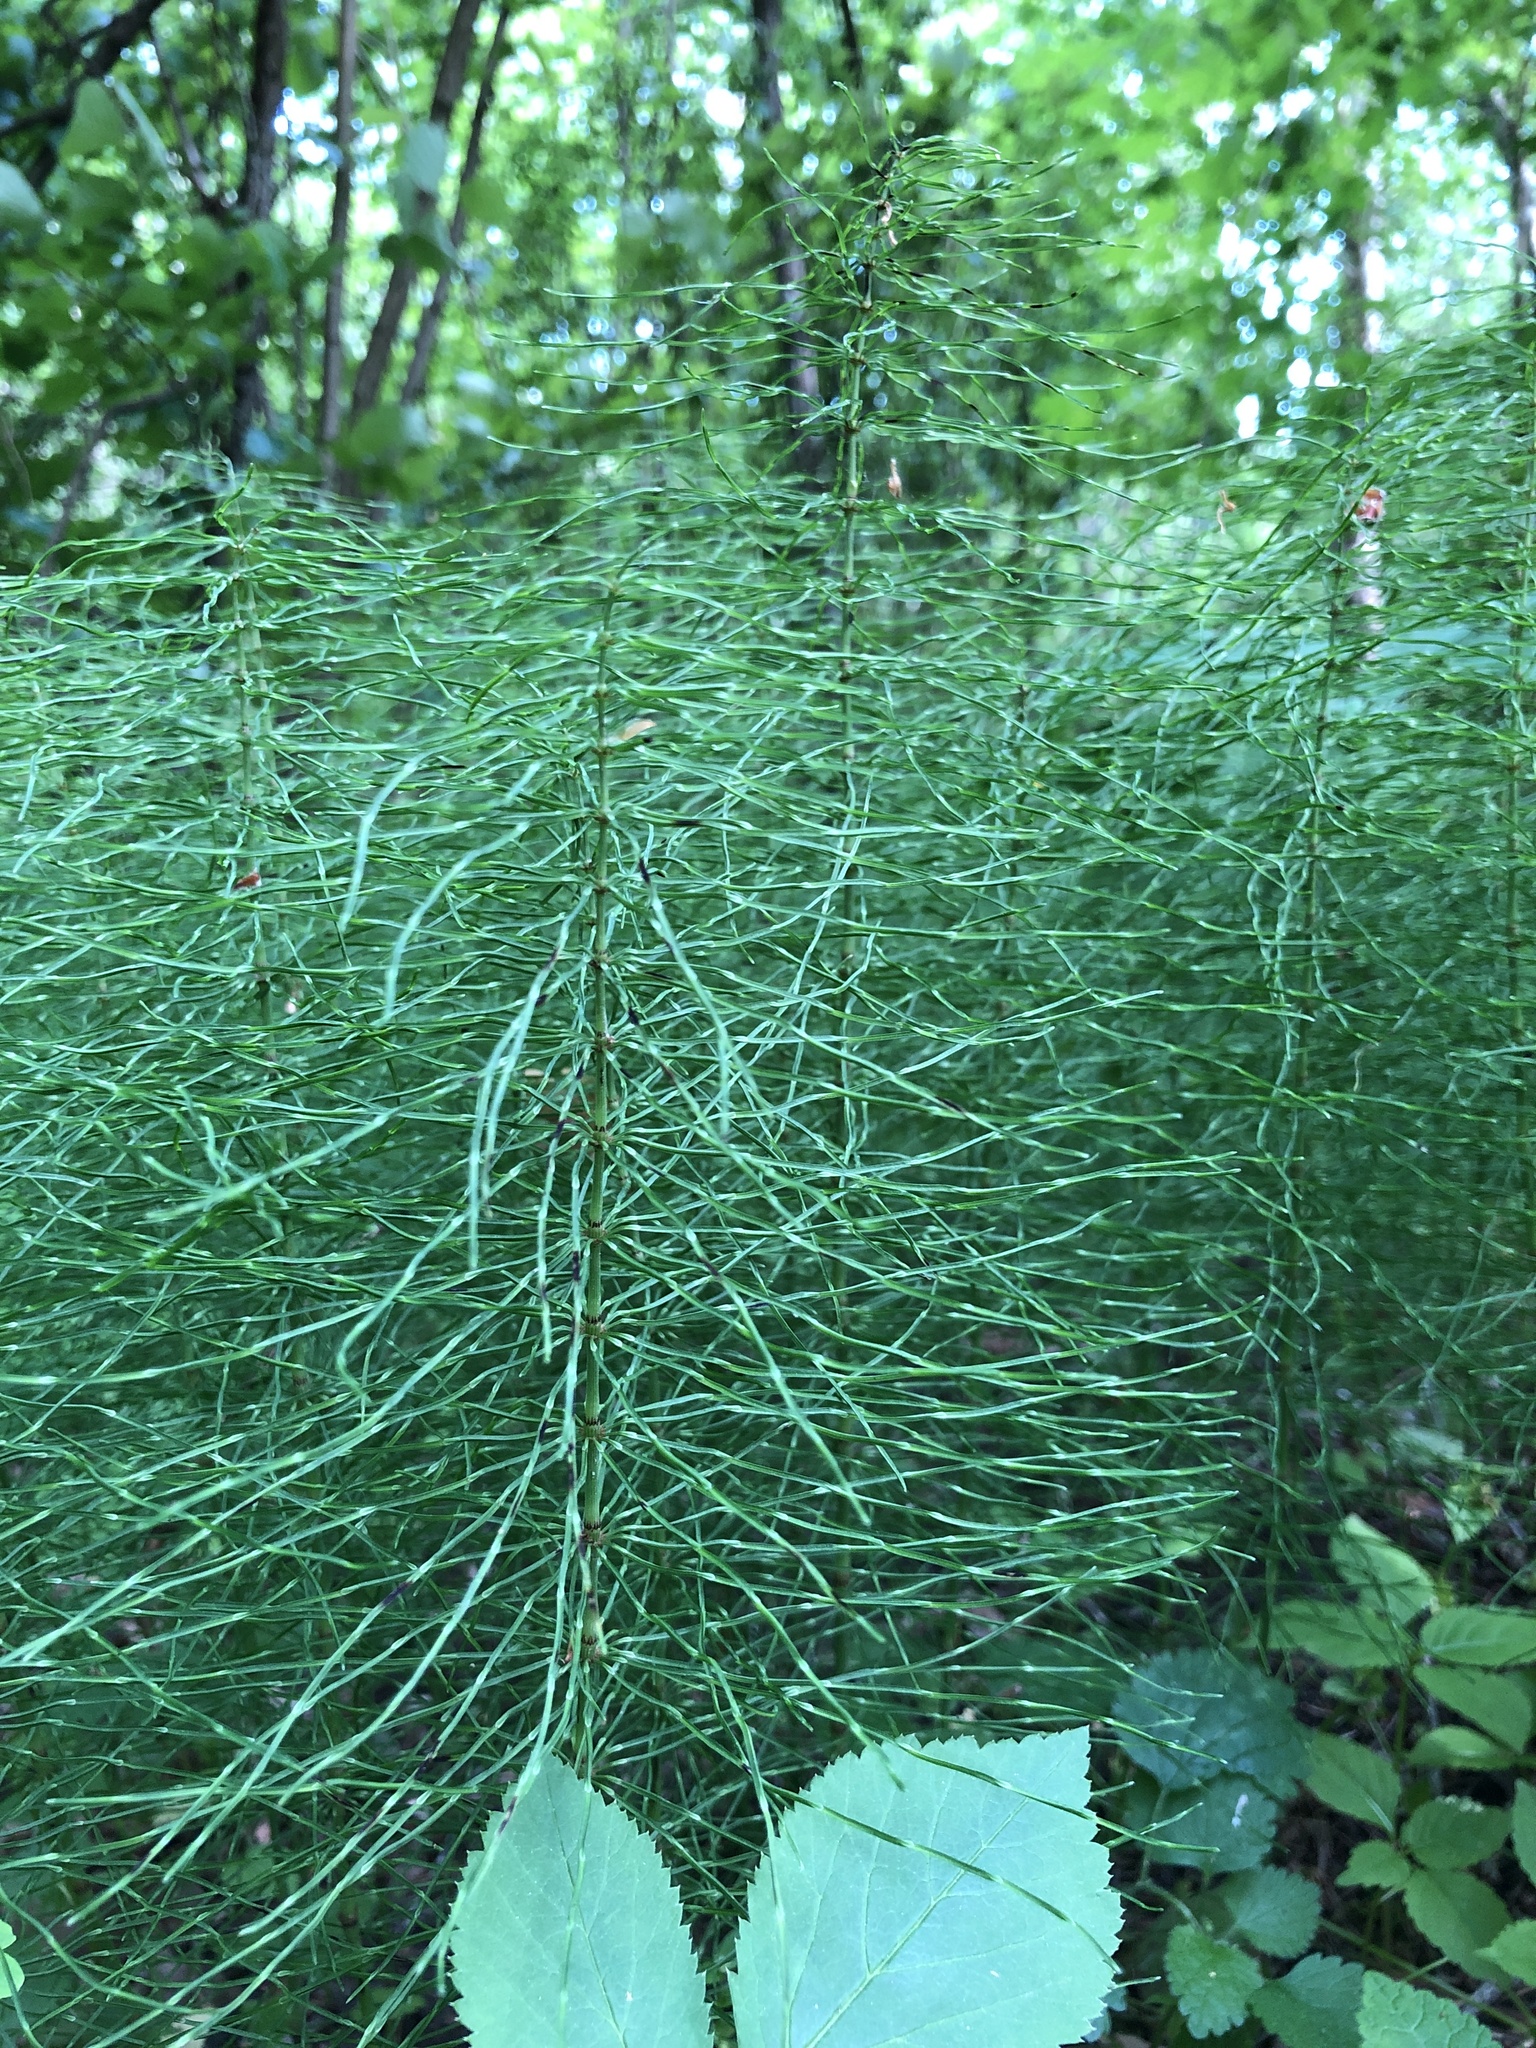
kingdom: Plantae
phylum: Tracheophyta
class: Polypodiopsida
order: Equisetales
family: Equisetaceae
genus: Equisetum
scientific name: Equisetum pratense
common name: Meadow horsetail
